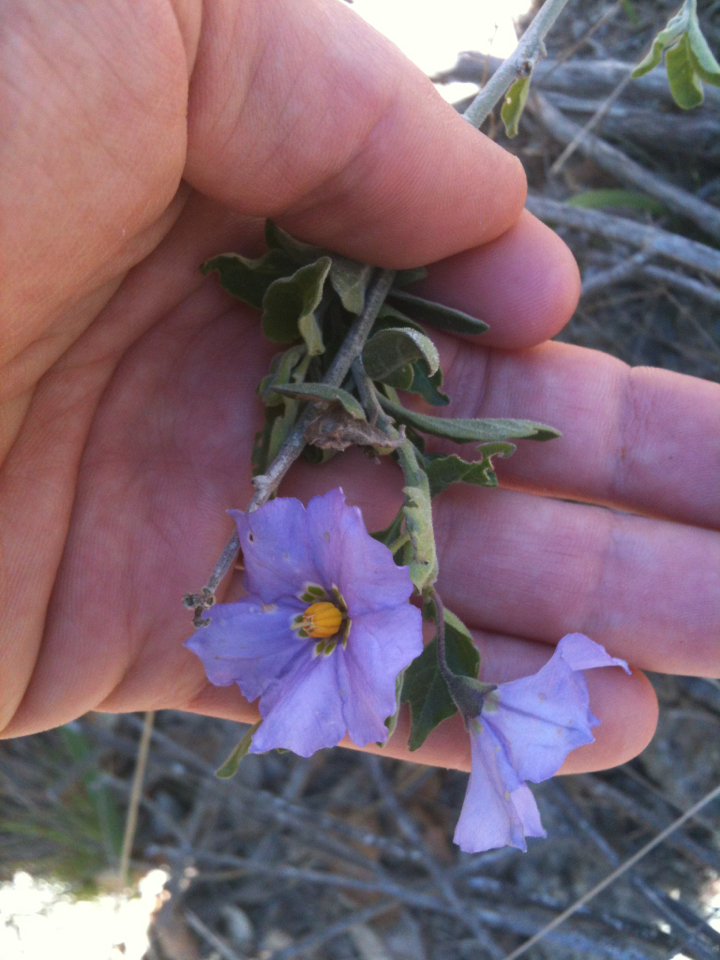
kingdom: Plantae
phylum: Tracheophyta
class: Magnoliopsida
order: Solanales
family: Solanaceae
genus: Solanum
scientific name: Solanum umbelliferum
